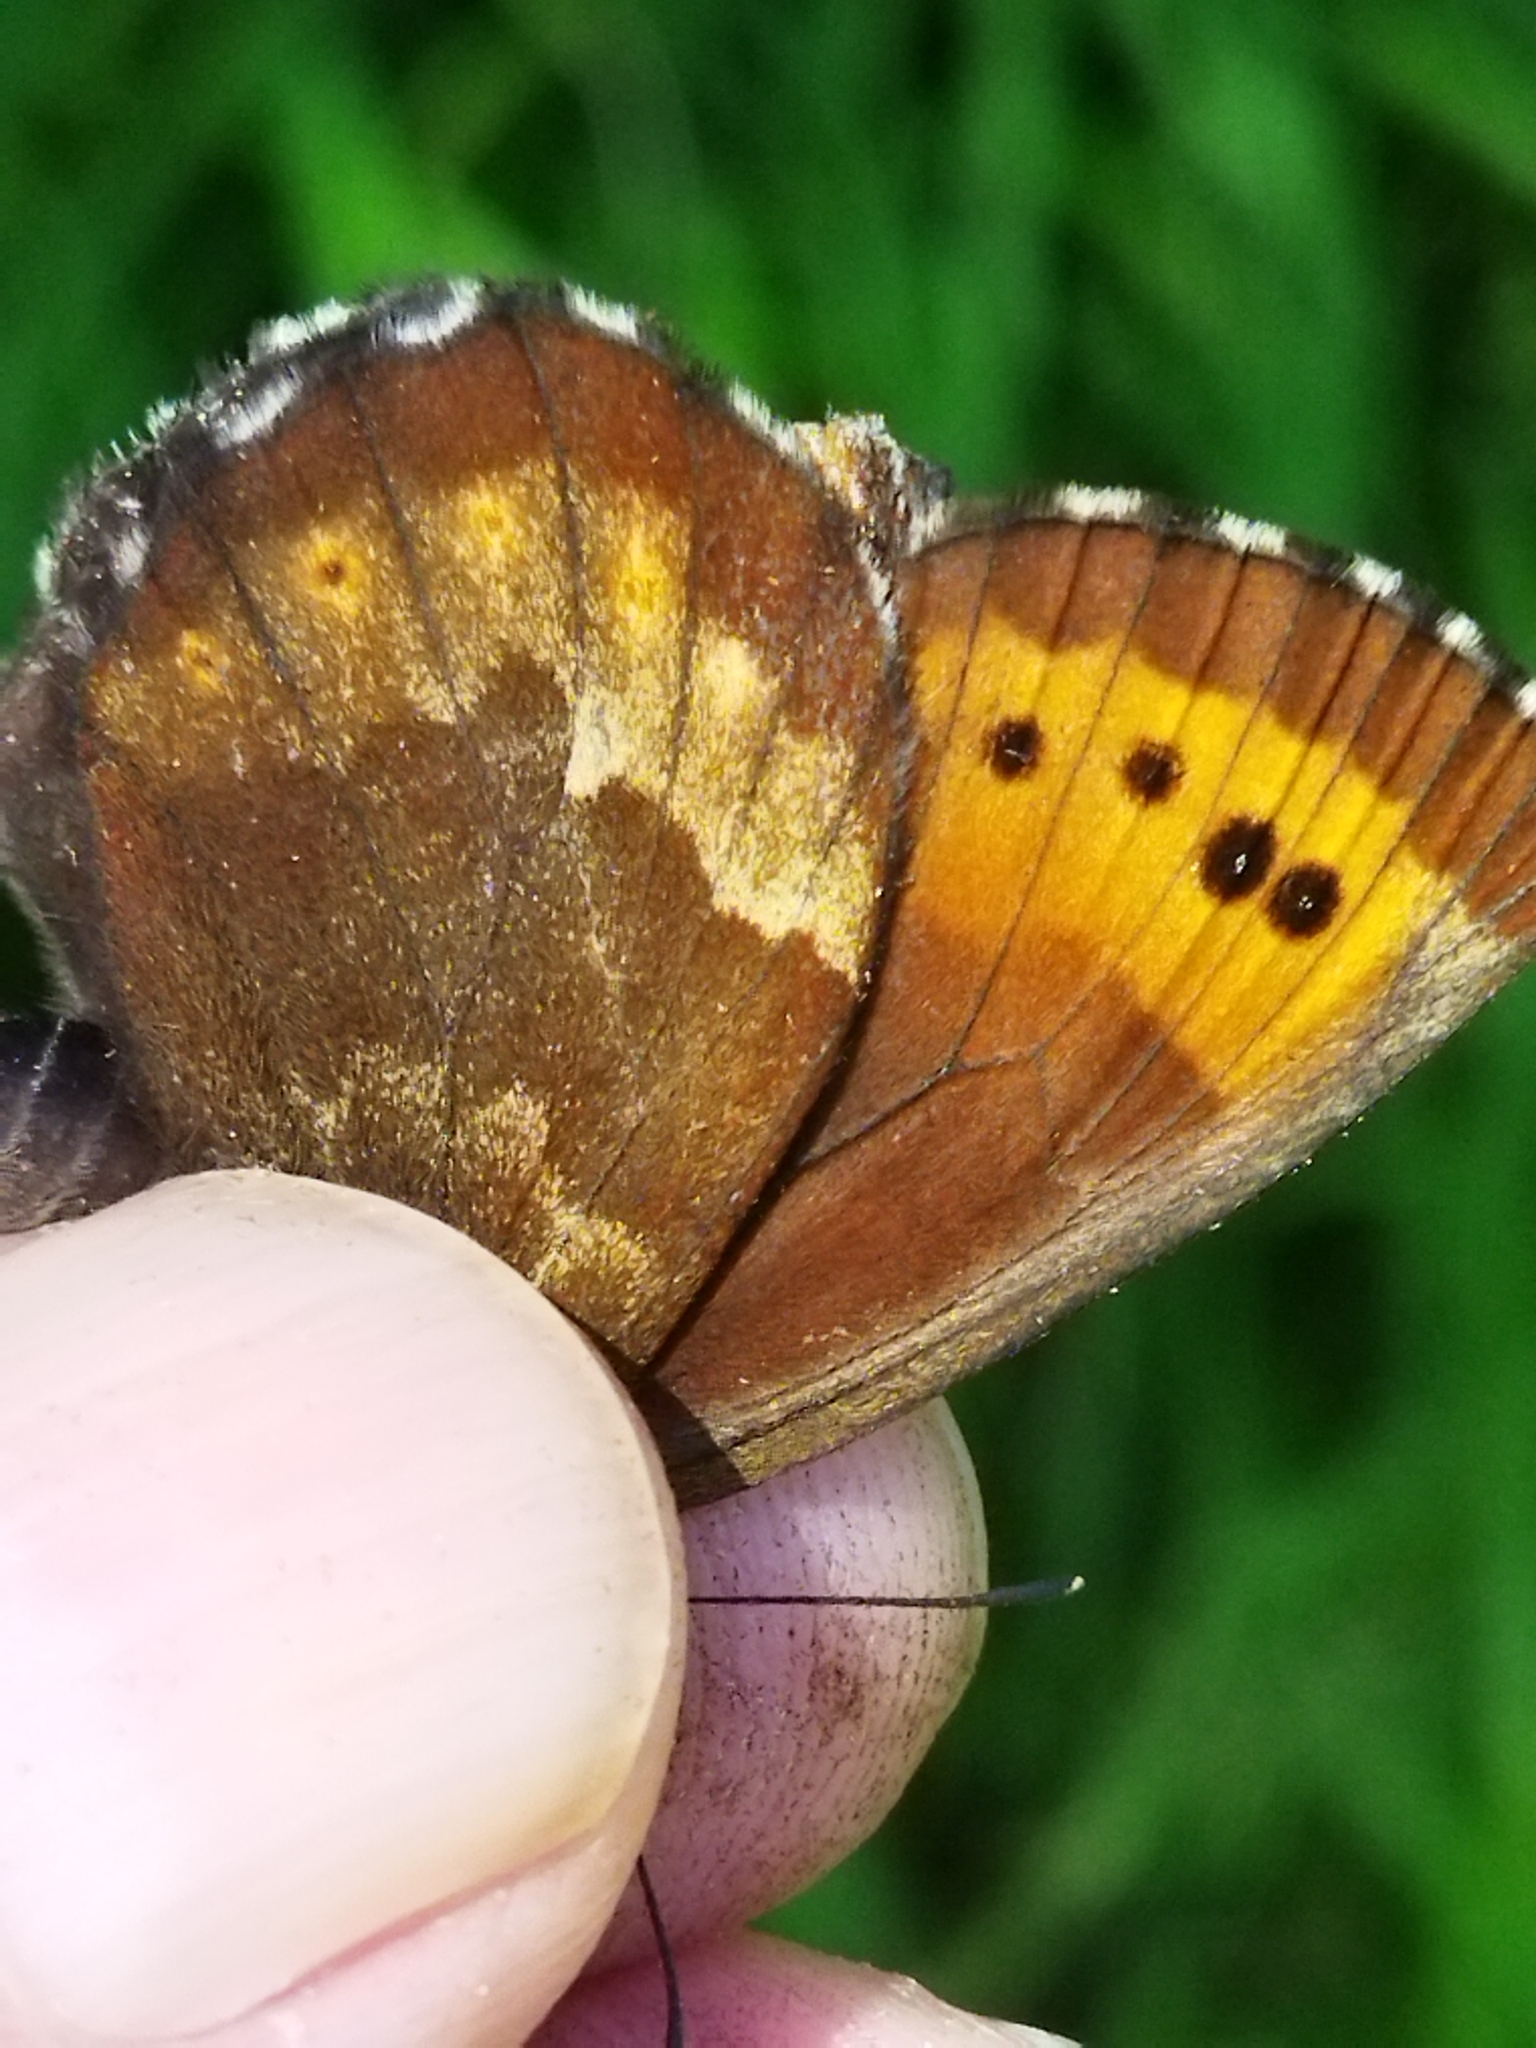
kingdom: Animalia
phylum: Arthropoda
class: Insecta
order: Lepidoptera
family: Nymphalidae
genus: Erebia
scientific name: Erebia euryale
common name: Large ringlet
